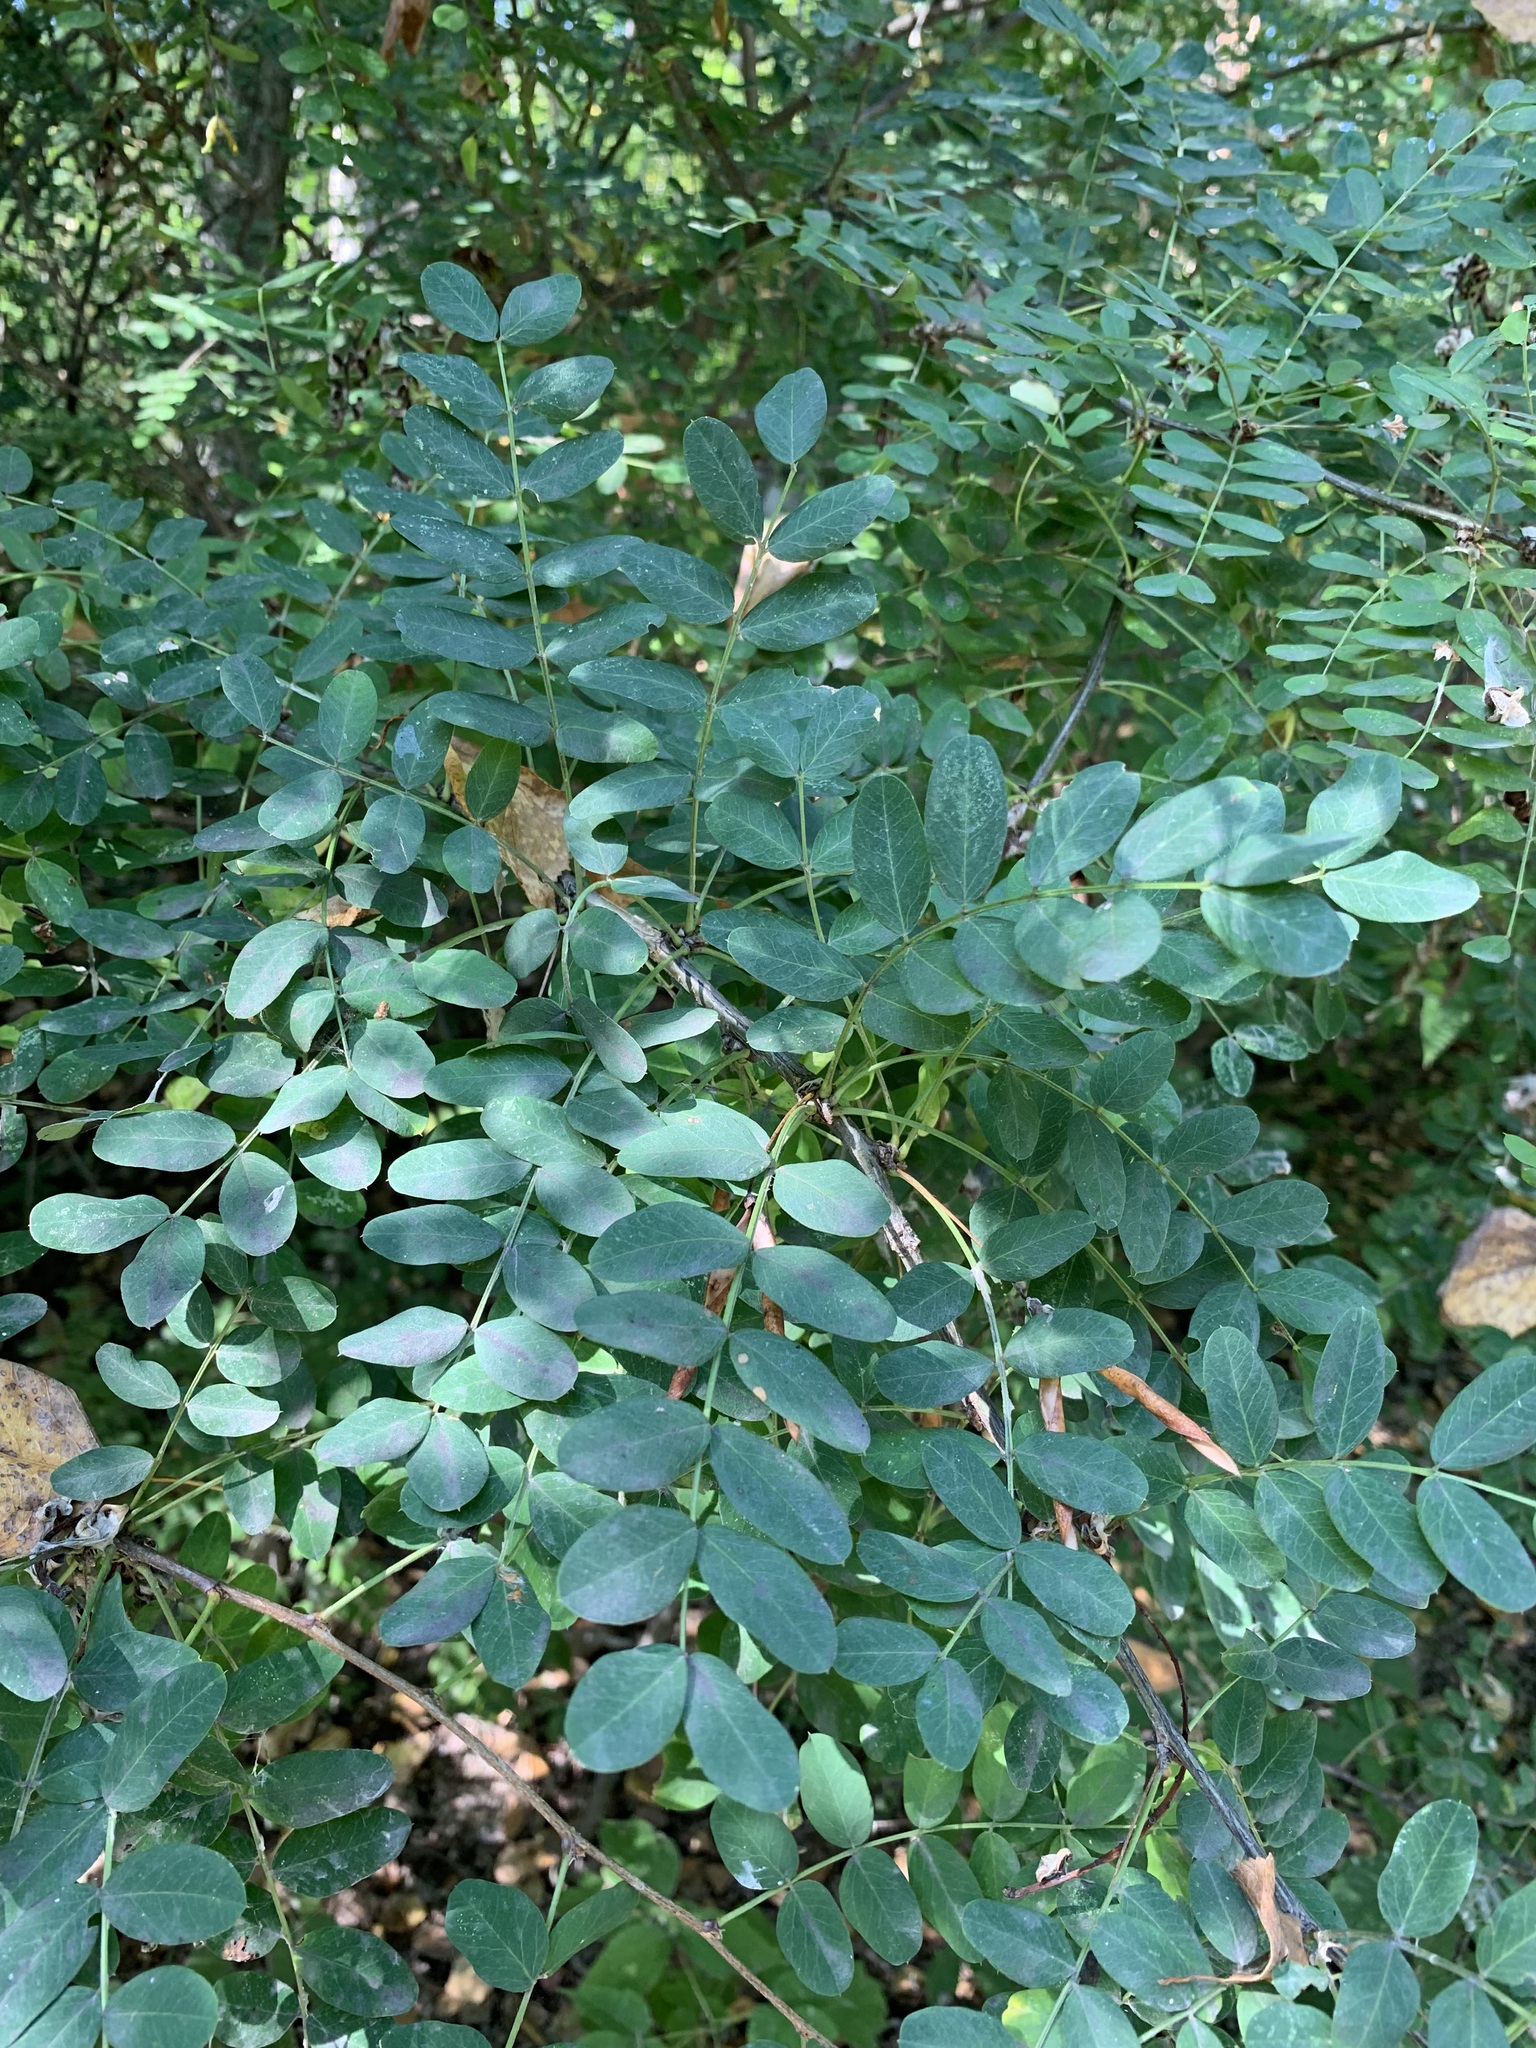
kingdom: Plantae
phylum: Tracheophyta
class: Magnoliopsida
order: Fabales
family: Fabaceae
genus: Caragana
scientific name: Caragana arborescens
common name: Siberian peashrub
